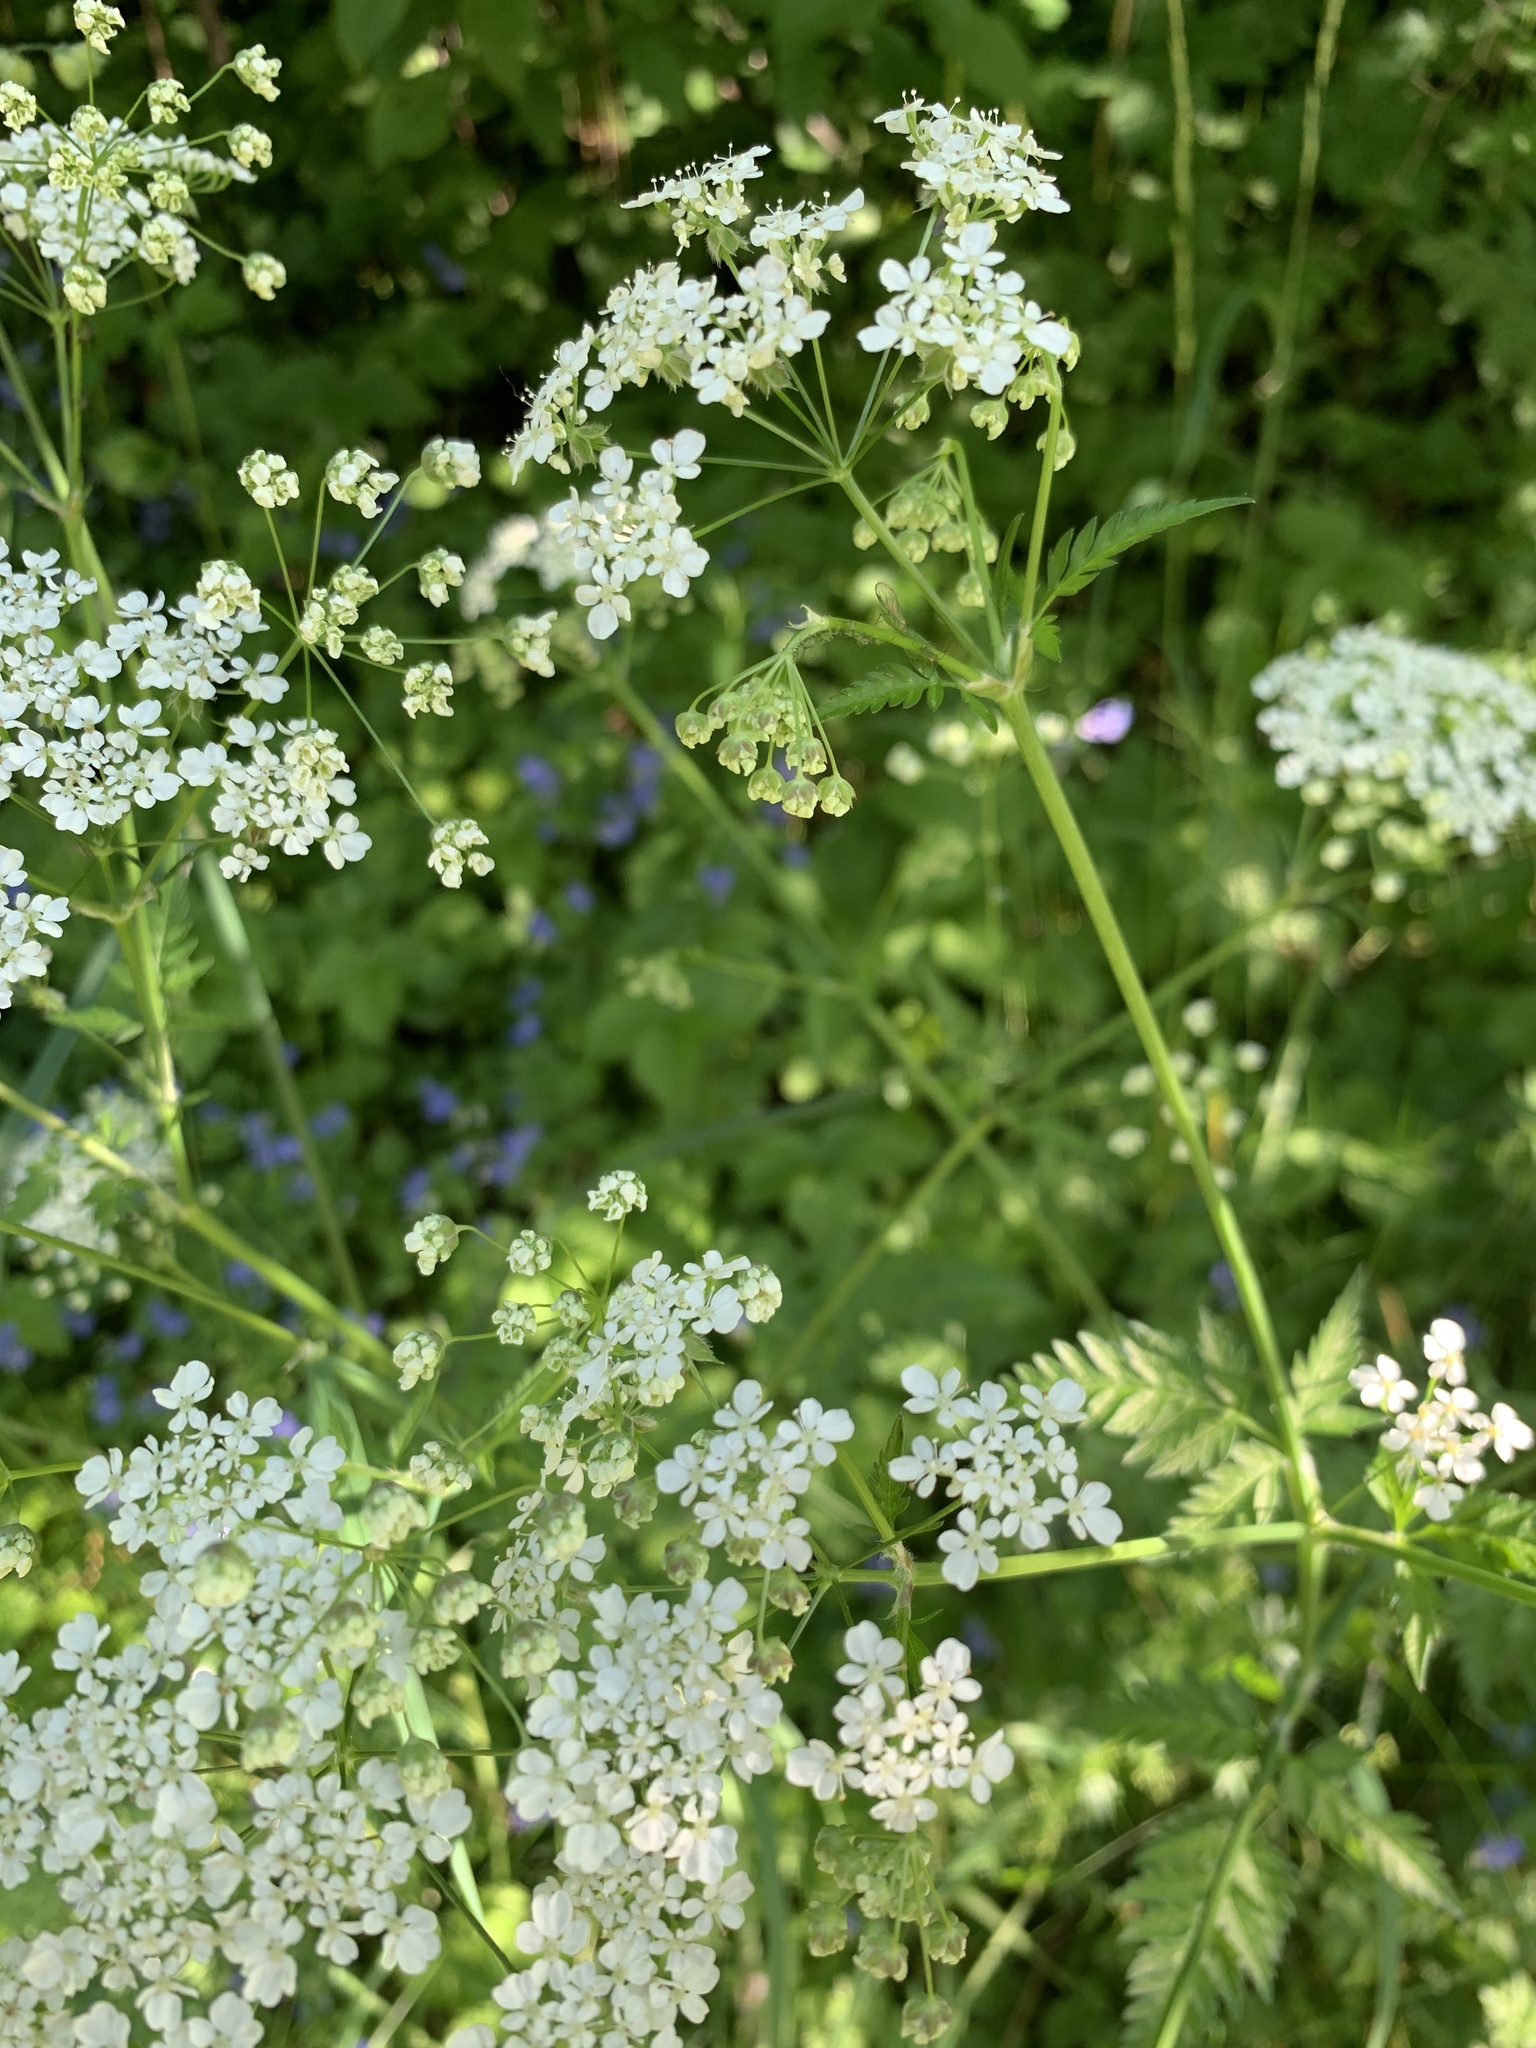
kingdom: Plantae
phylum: Tracheophyta
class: Magnoliopsida
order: Apiales
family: Apiaceae
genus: Anthriscus
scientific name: Anthriscus sylvestris
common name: Cow parsley
